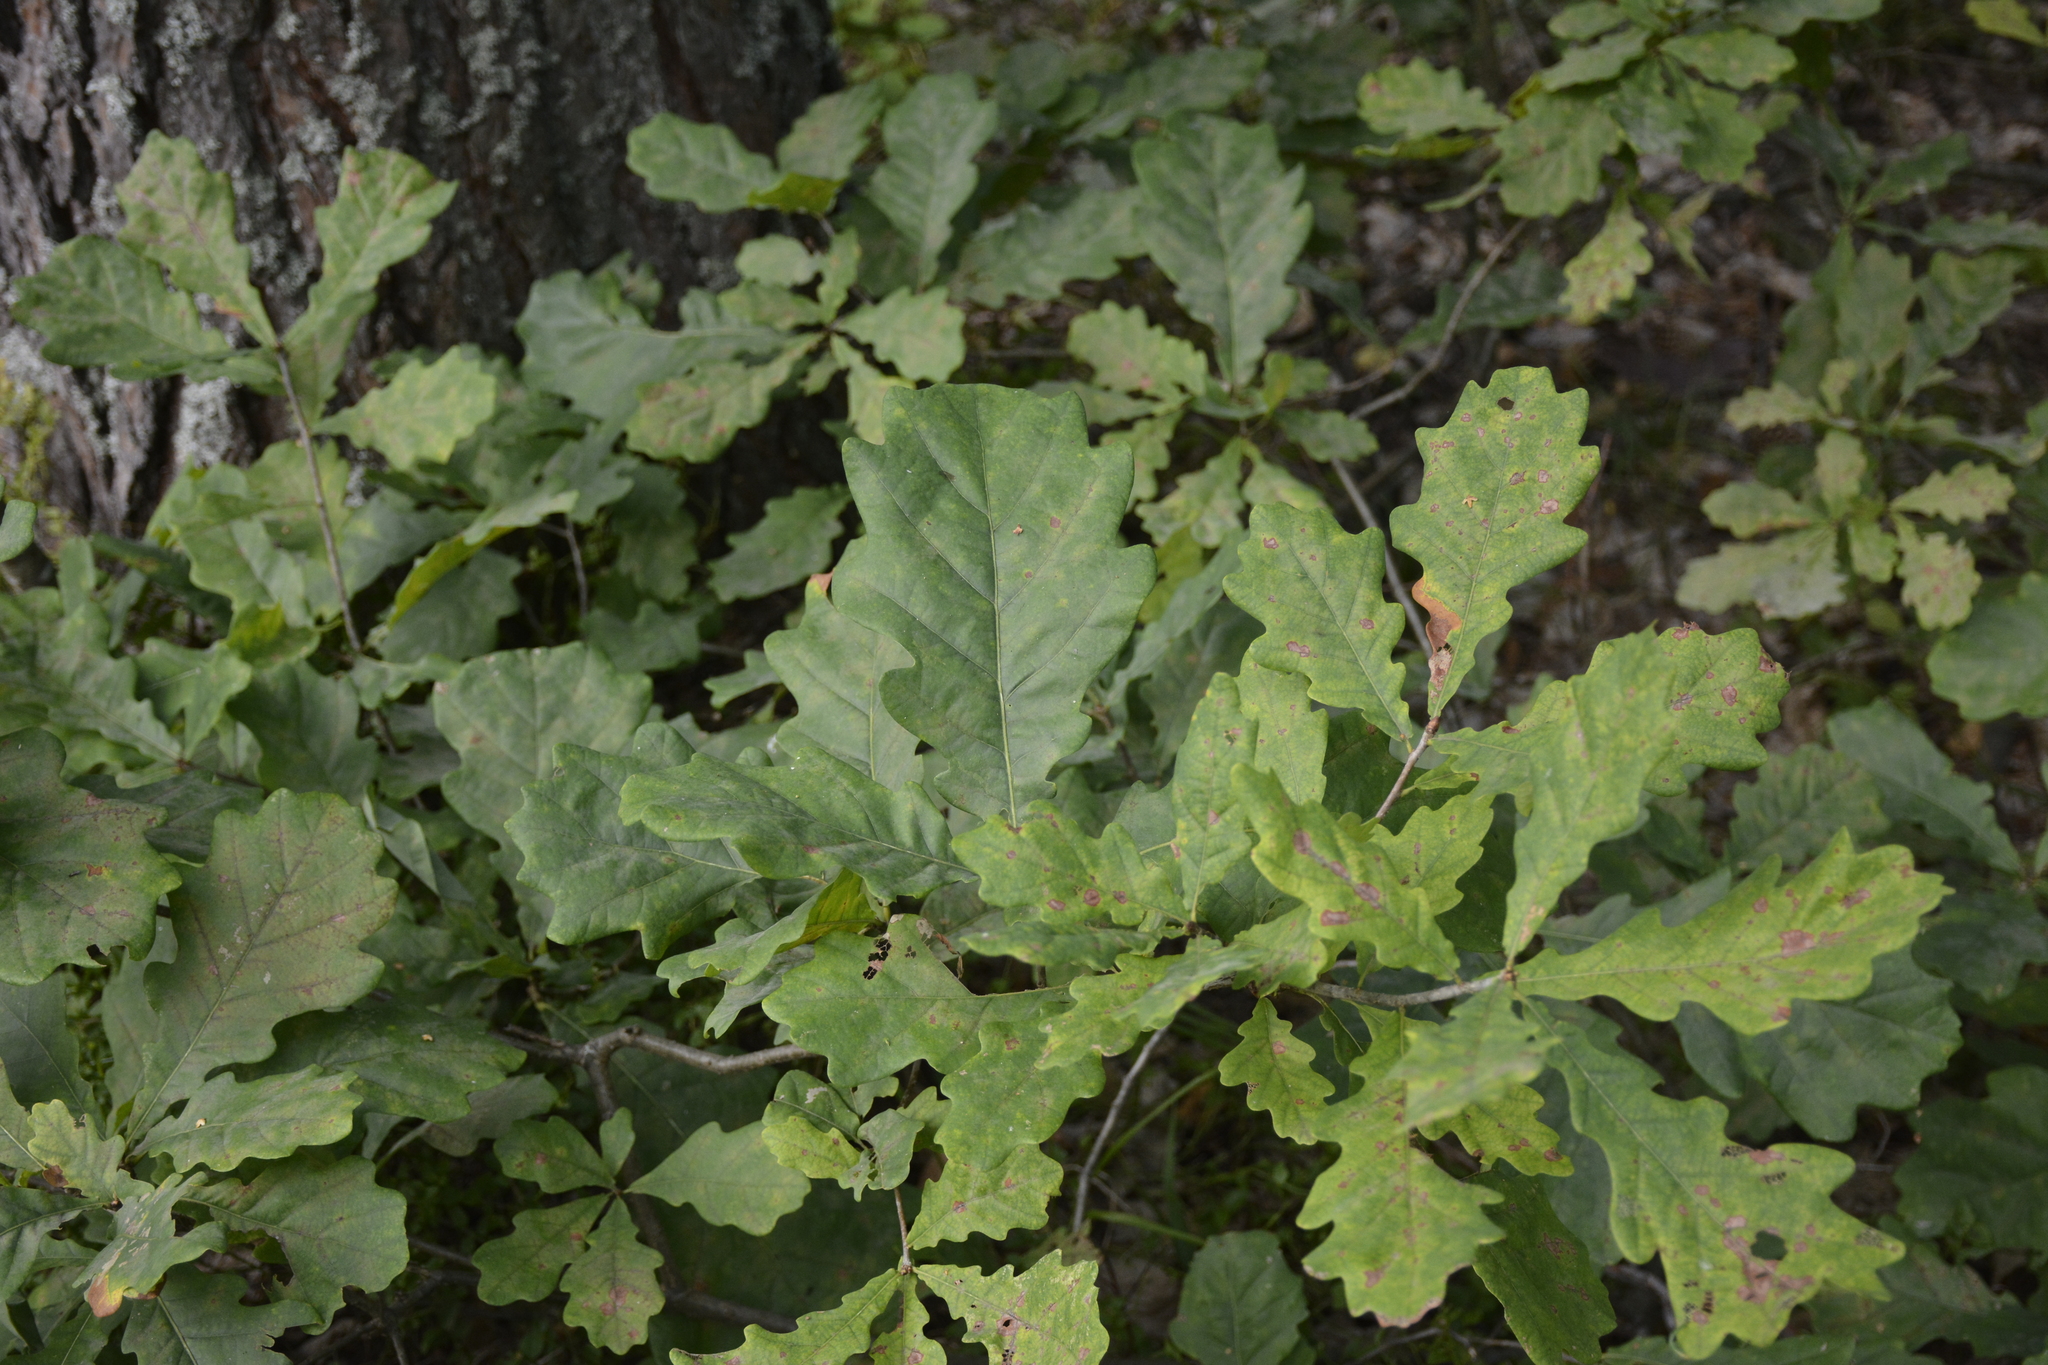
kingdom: Plantae
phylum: Tracheophyta
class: Magnoliopsida
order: Fagales
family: Fagaceae
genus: Quercus
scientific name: Quercus robur
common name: Pedunculate oak
